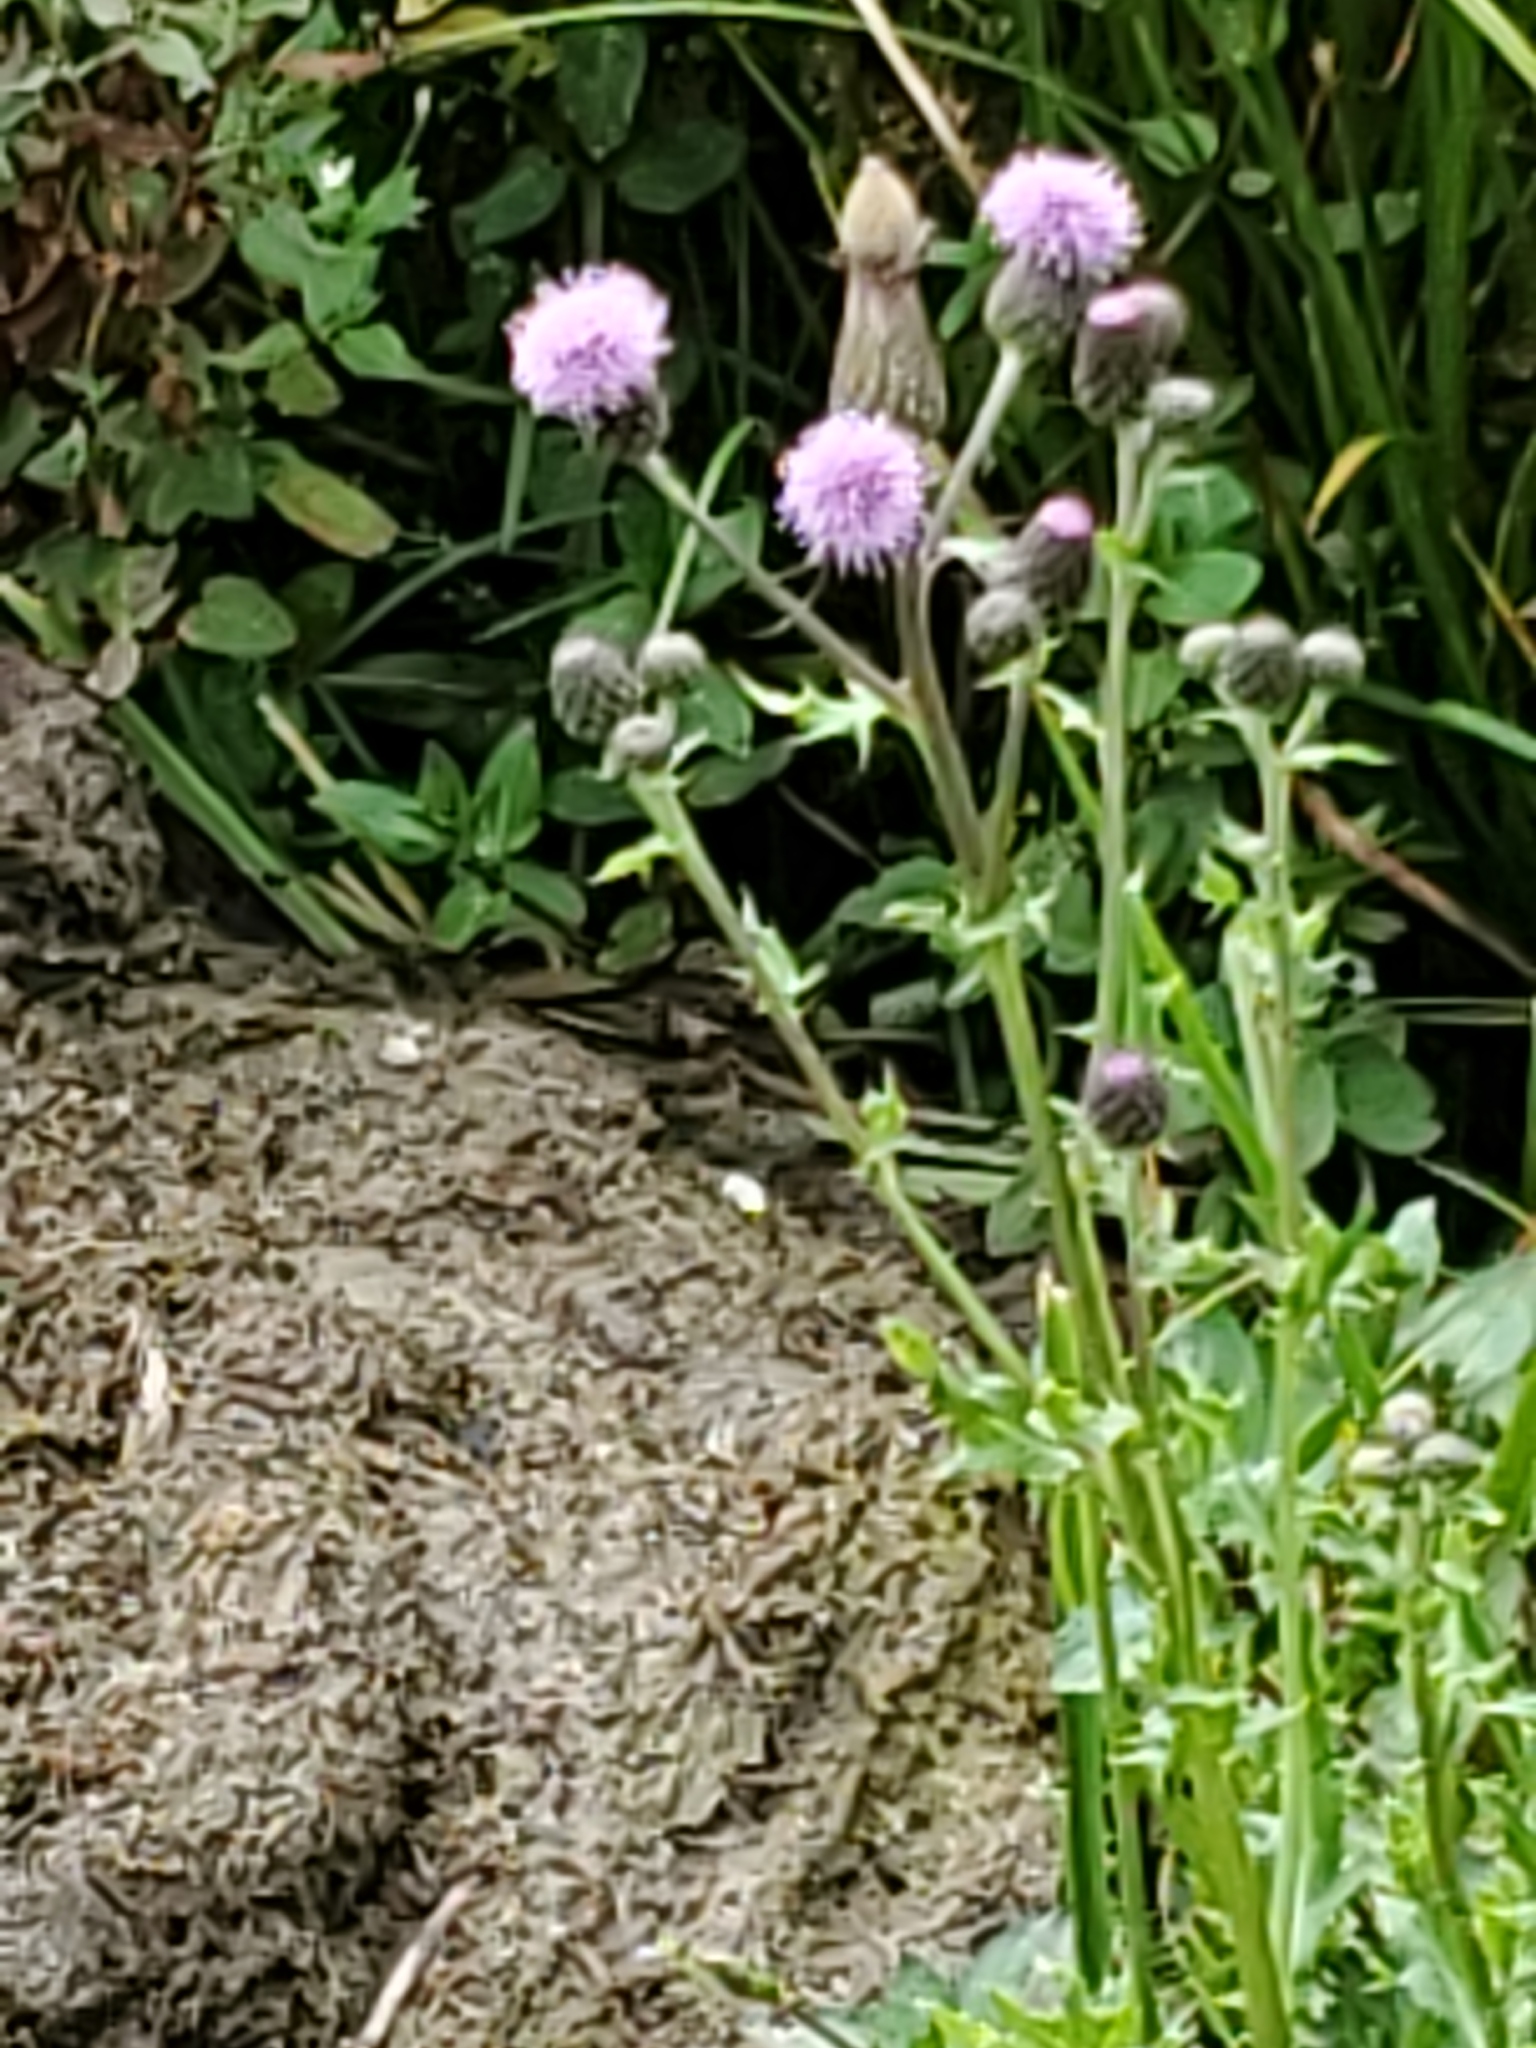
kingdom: Plantae
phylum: Tracheophyta
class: Magnoliopsida
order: Asterales
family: Asteraceae
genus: Cirsium
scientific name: Cirsium arvense
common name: Creeping thistle
